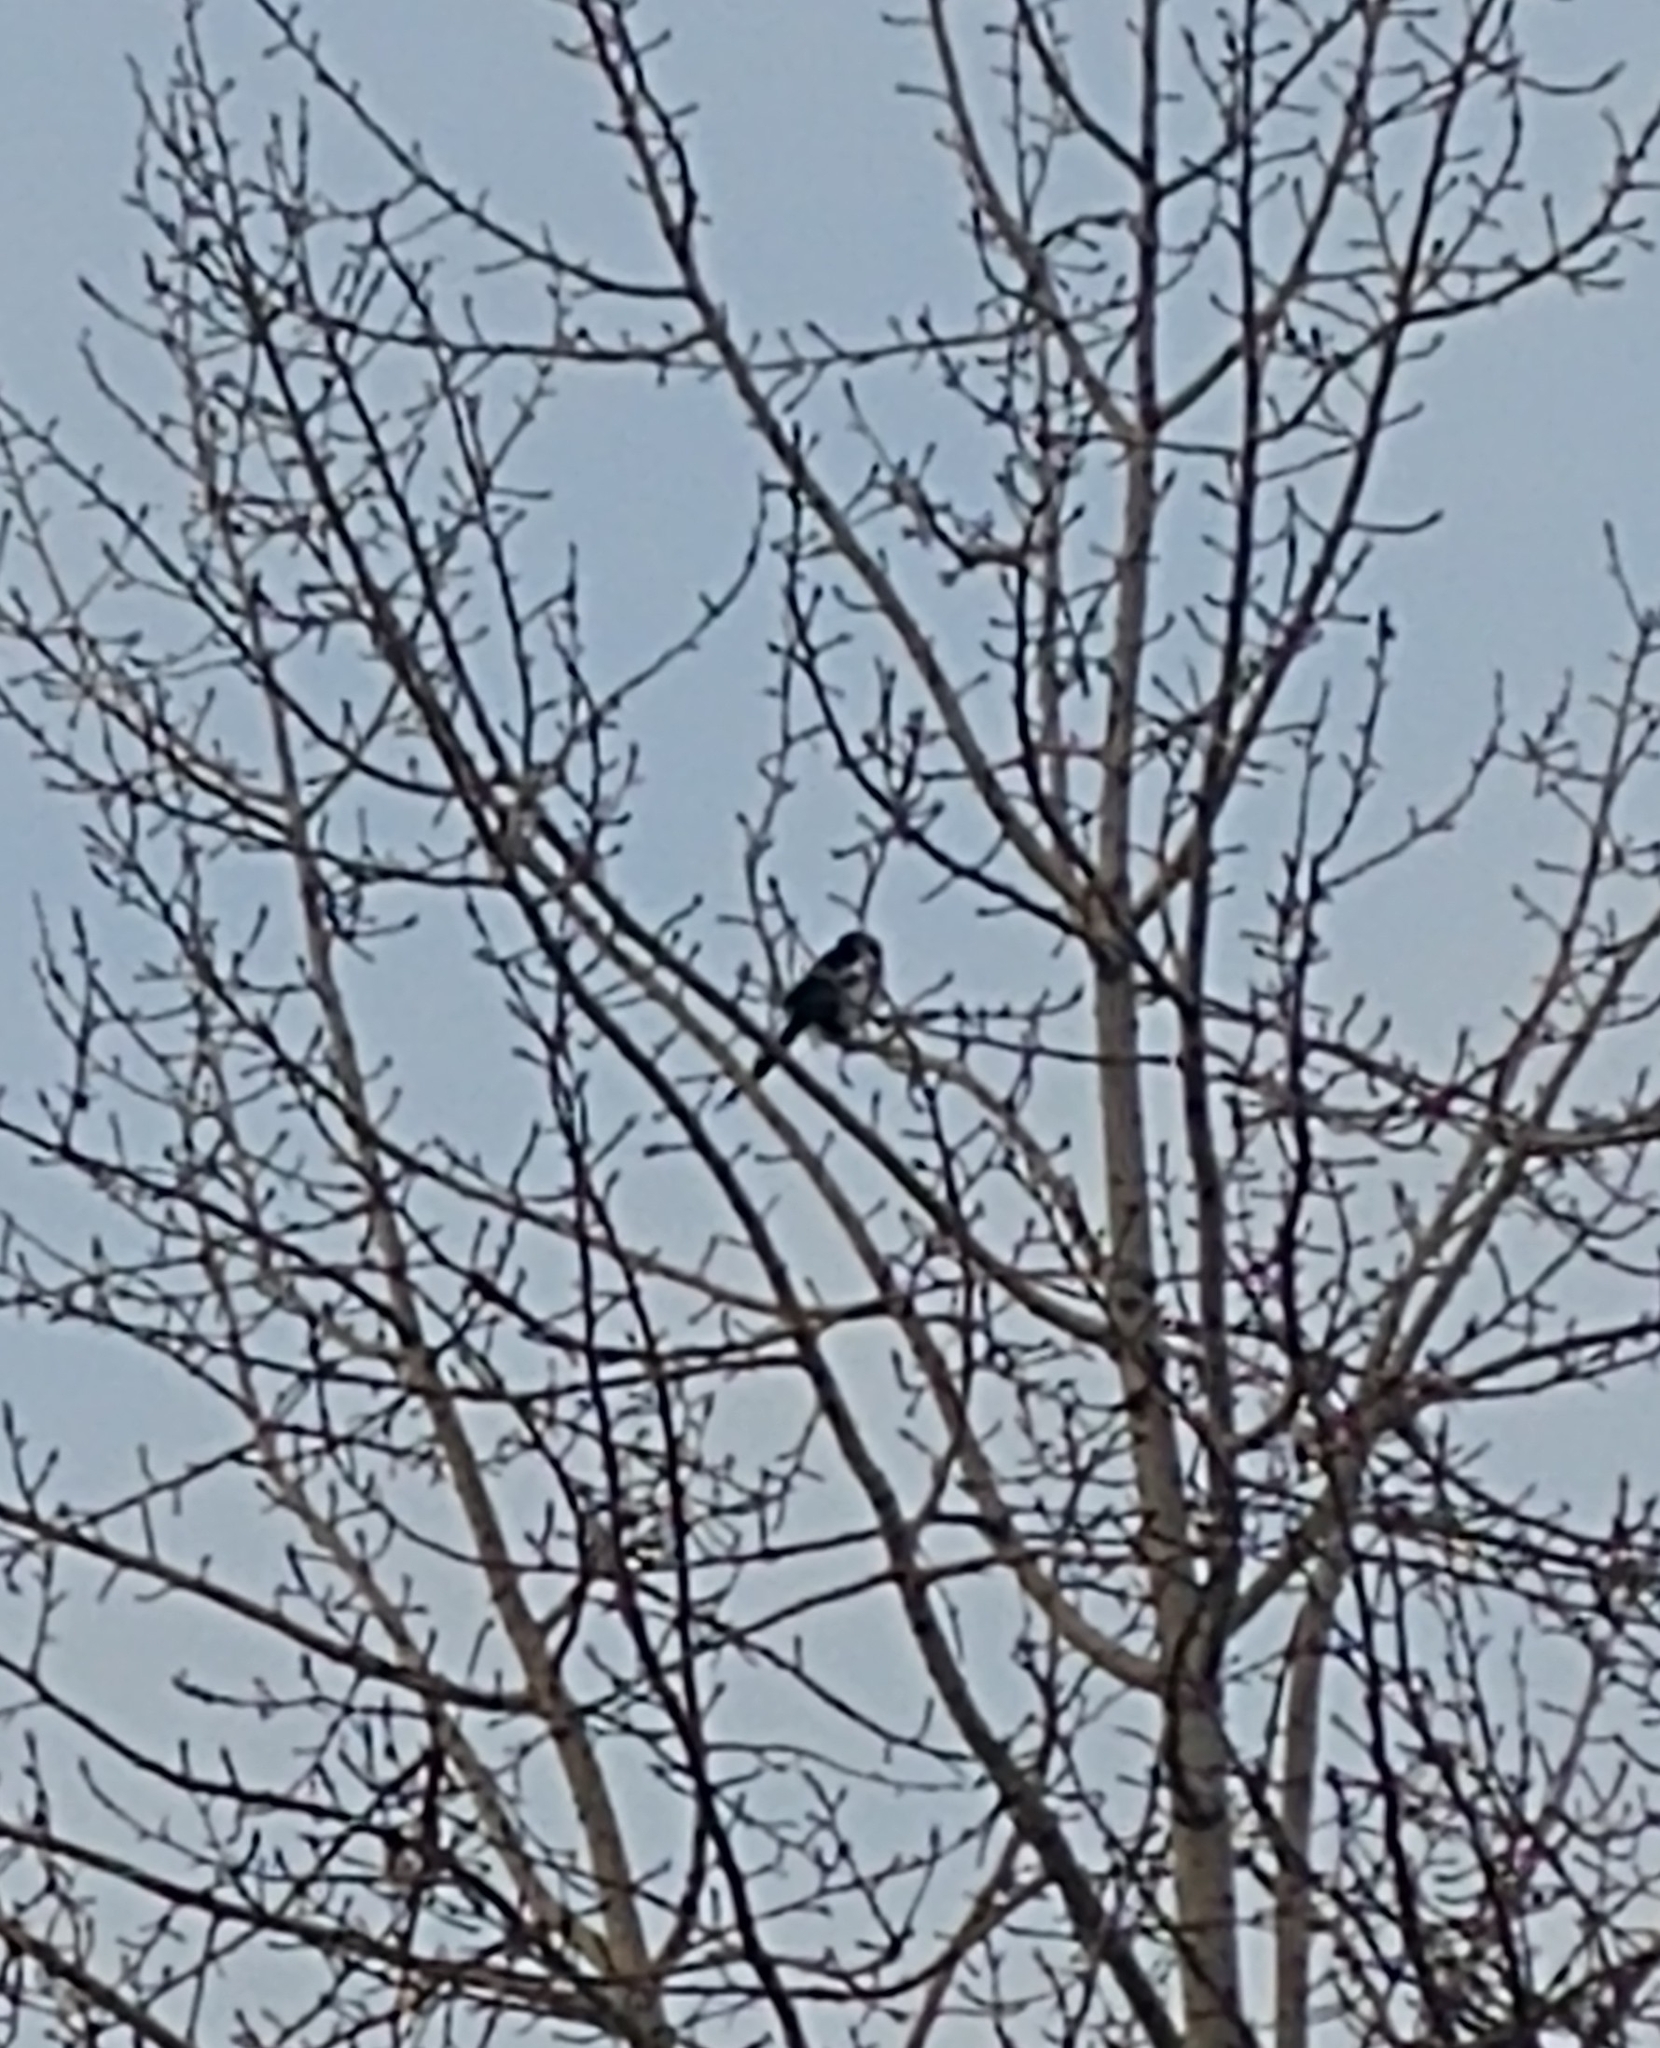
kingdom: Animalia
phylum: Chordata
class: Aves
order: Passeriformes
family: Corvidae
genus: Pica
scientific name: Pica hudsonia
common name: Black-billed magpie
